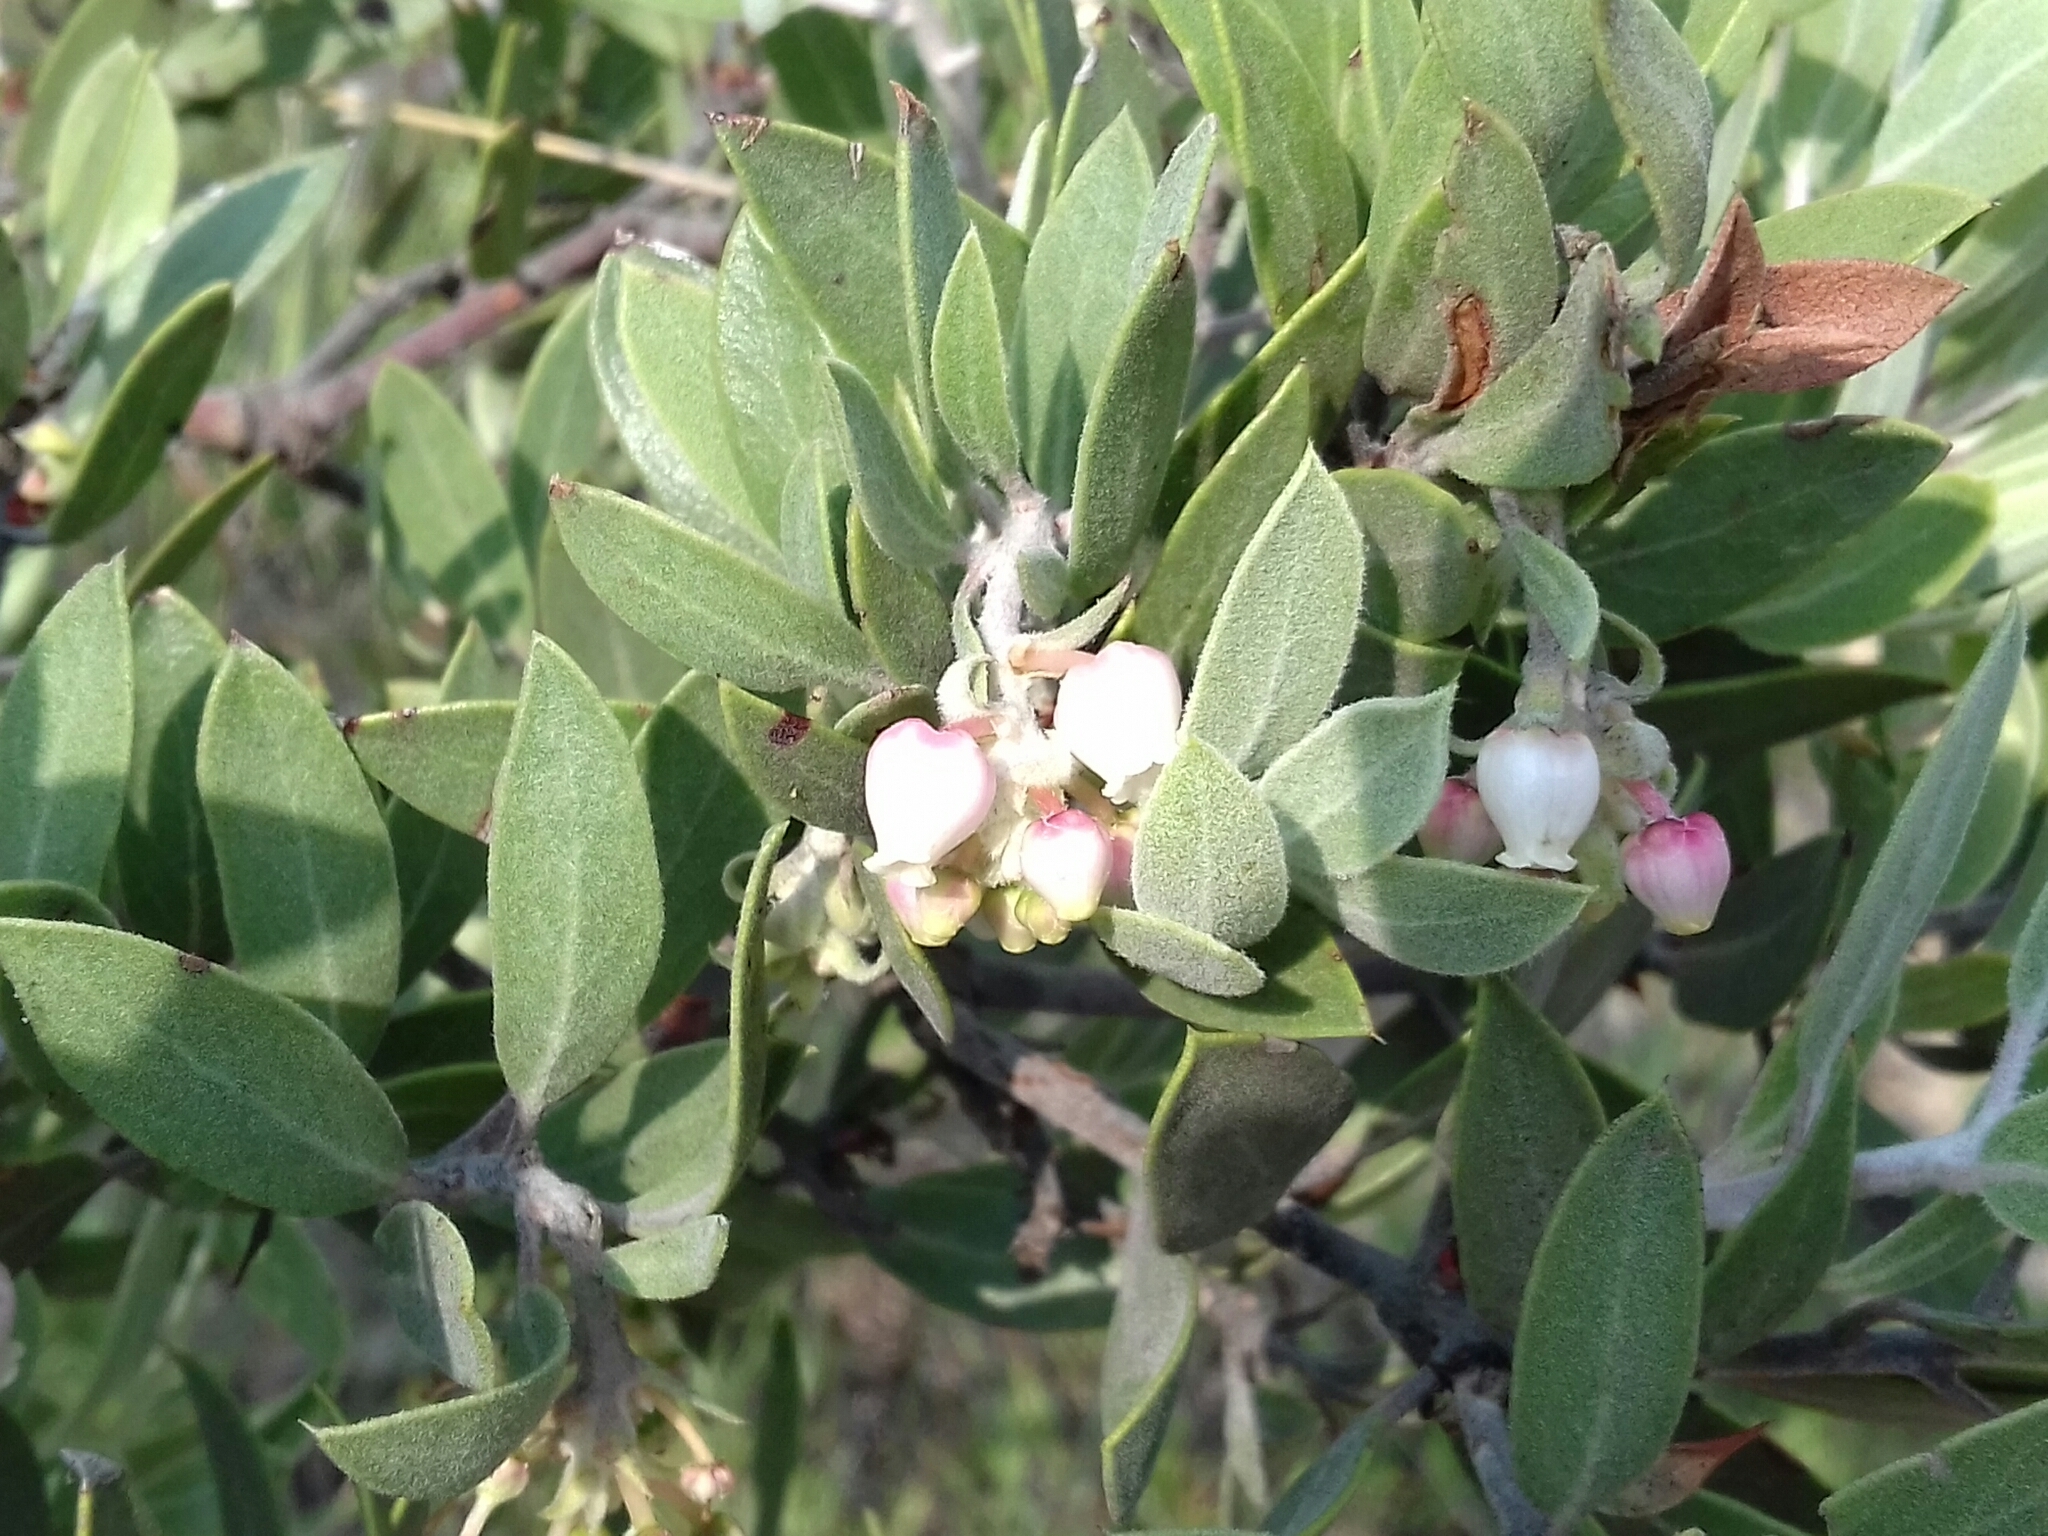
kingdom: Plantae
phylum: Tracheophyta
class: Magnoliopsida
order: Ericales
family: Ericaceae
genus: Arctostaphylos
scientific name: Arctostaphylos pungens
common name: Mexican manzanita
